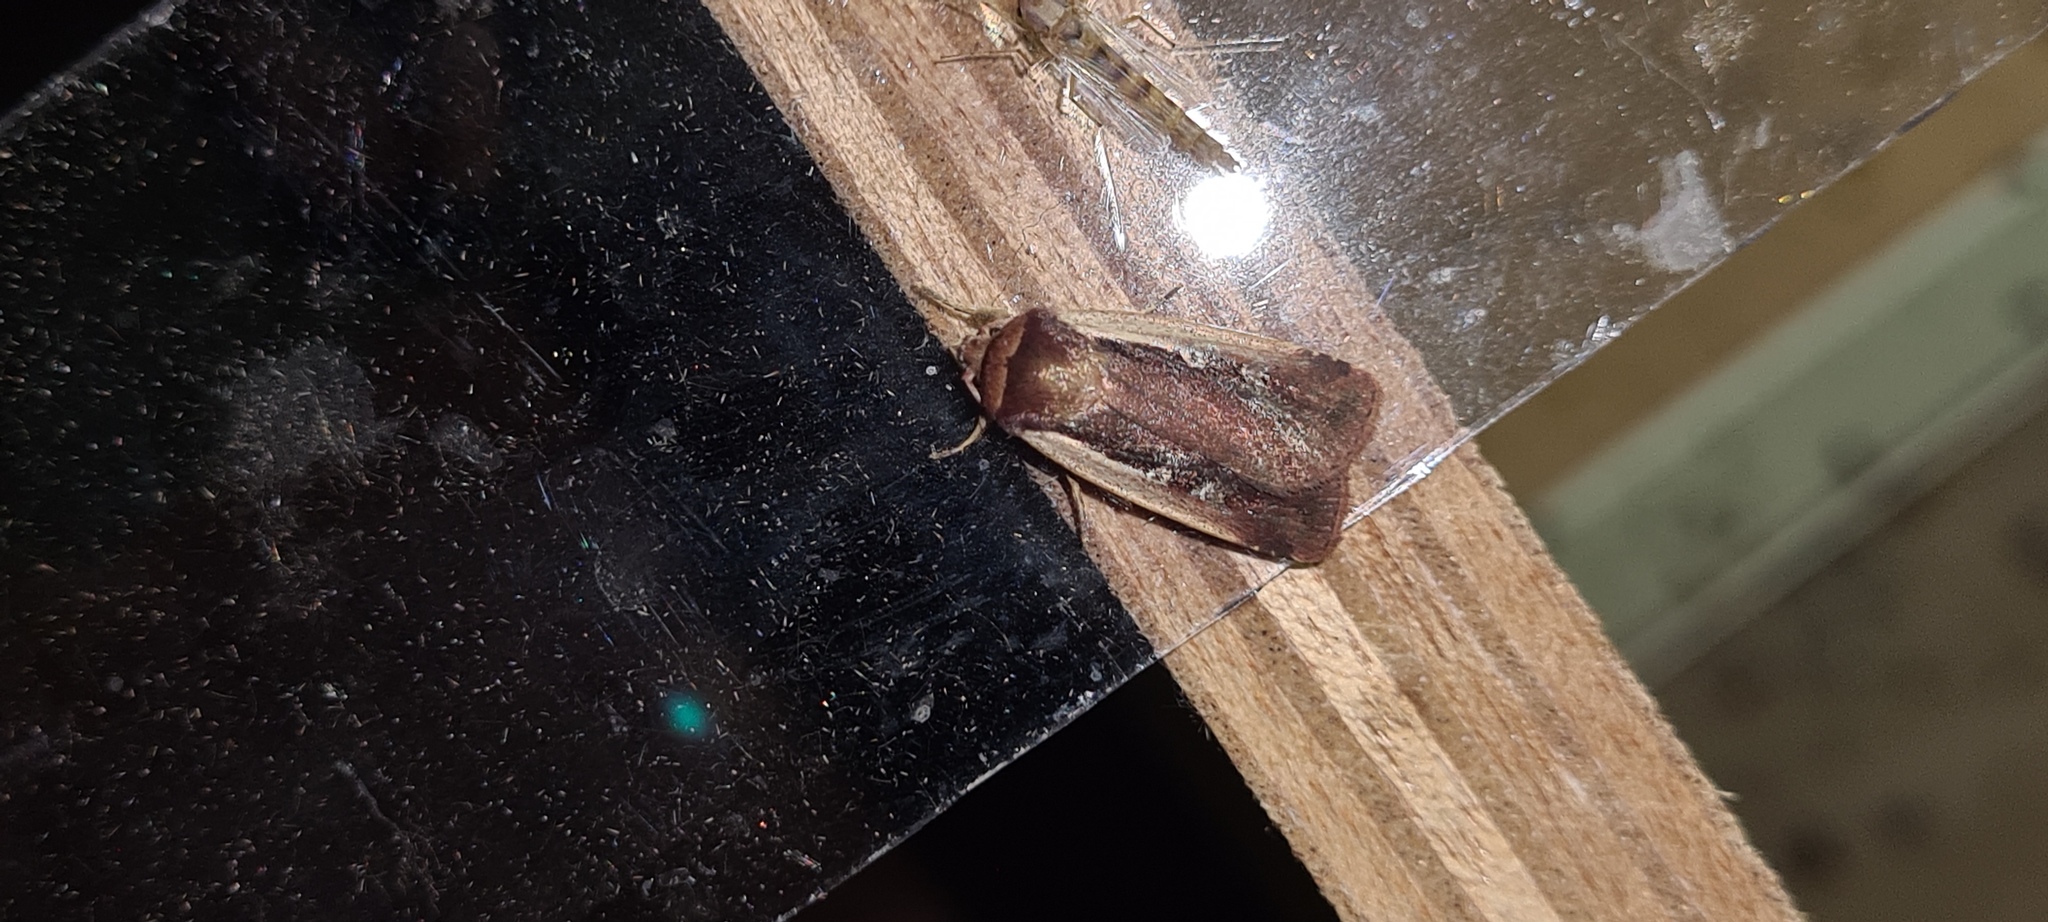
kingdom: Animalia
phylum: Arthropoda
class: Insecta
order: Lepidoptera
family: Noctuidae
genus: Ochropleura
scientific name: Ochropleura plecta
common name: Flame shoulder
